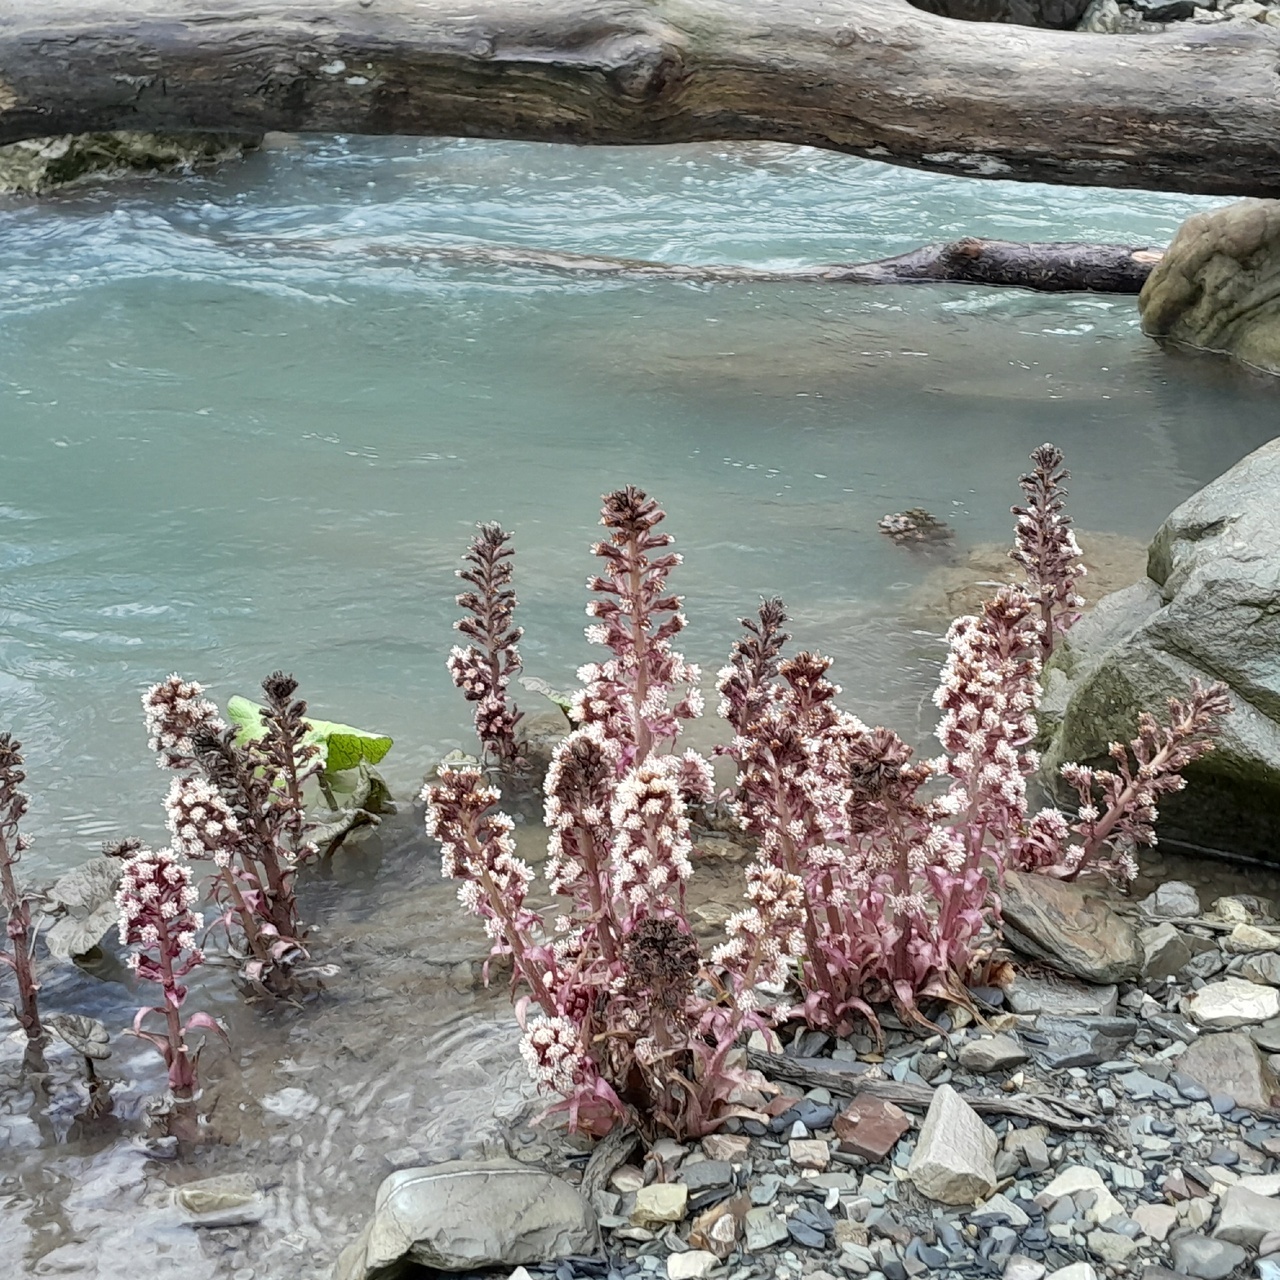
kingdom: Plantae
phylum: Tracheophyta
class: Magnoliopsida
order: Asterales
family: Asteraceae
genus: Petasites
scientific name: Petasites hybridus
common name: Butterbur
